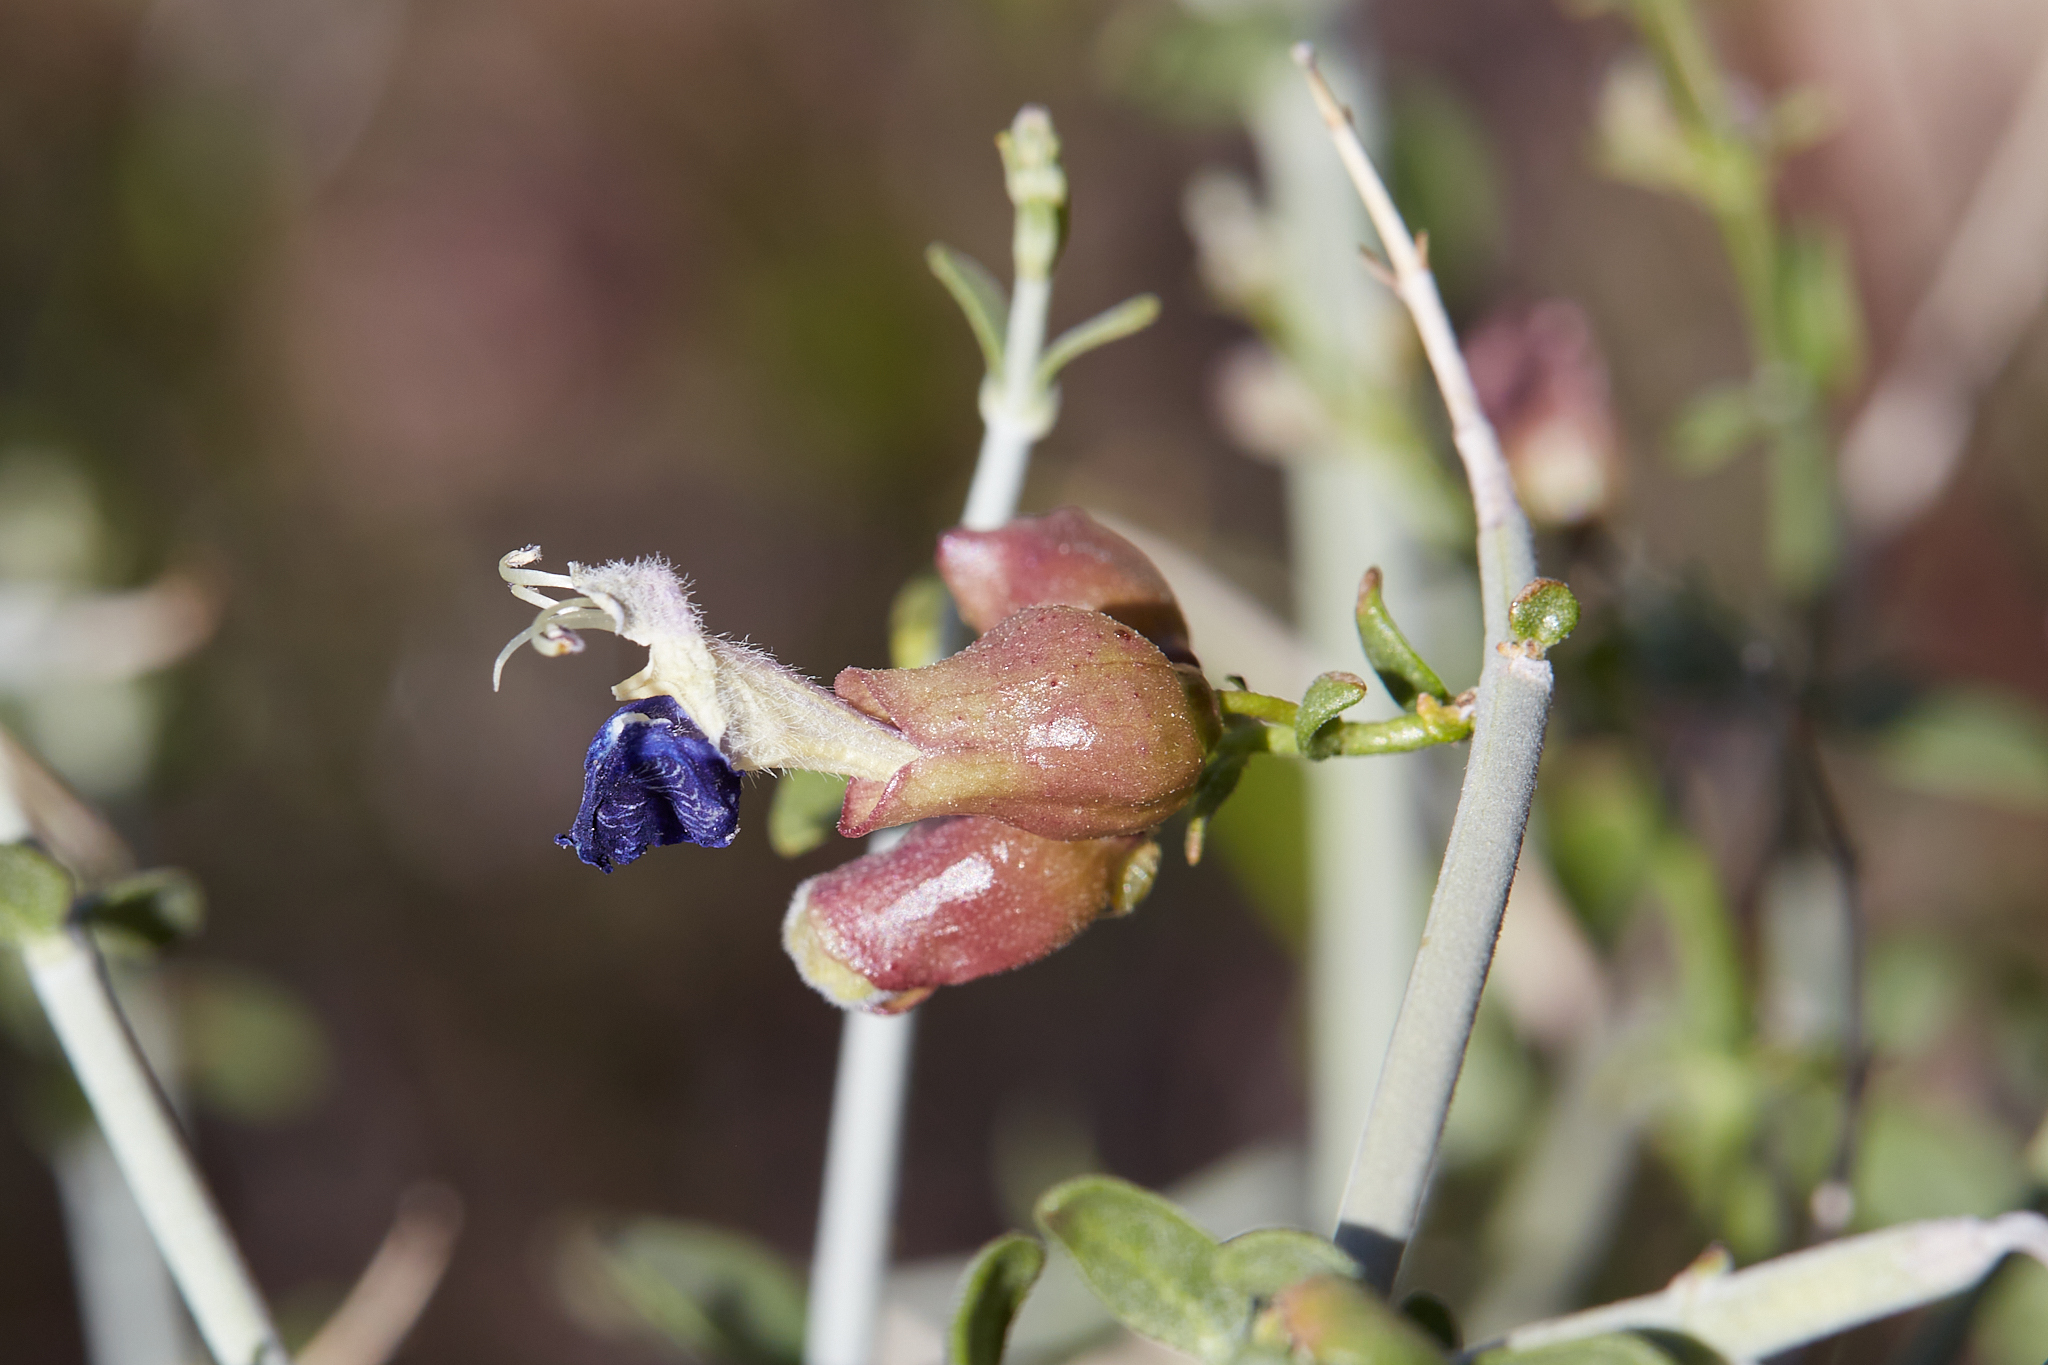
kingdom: Plantae
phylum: Tracheophyta
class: Magnoliopsida
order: Lamiales
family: Lamiaceae
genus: Scutellaria
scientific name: Scutellaria mexicana
